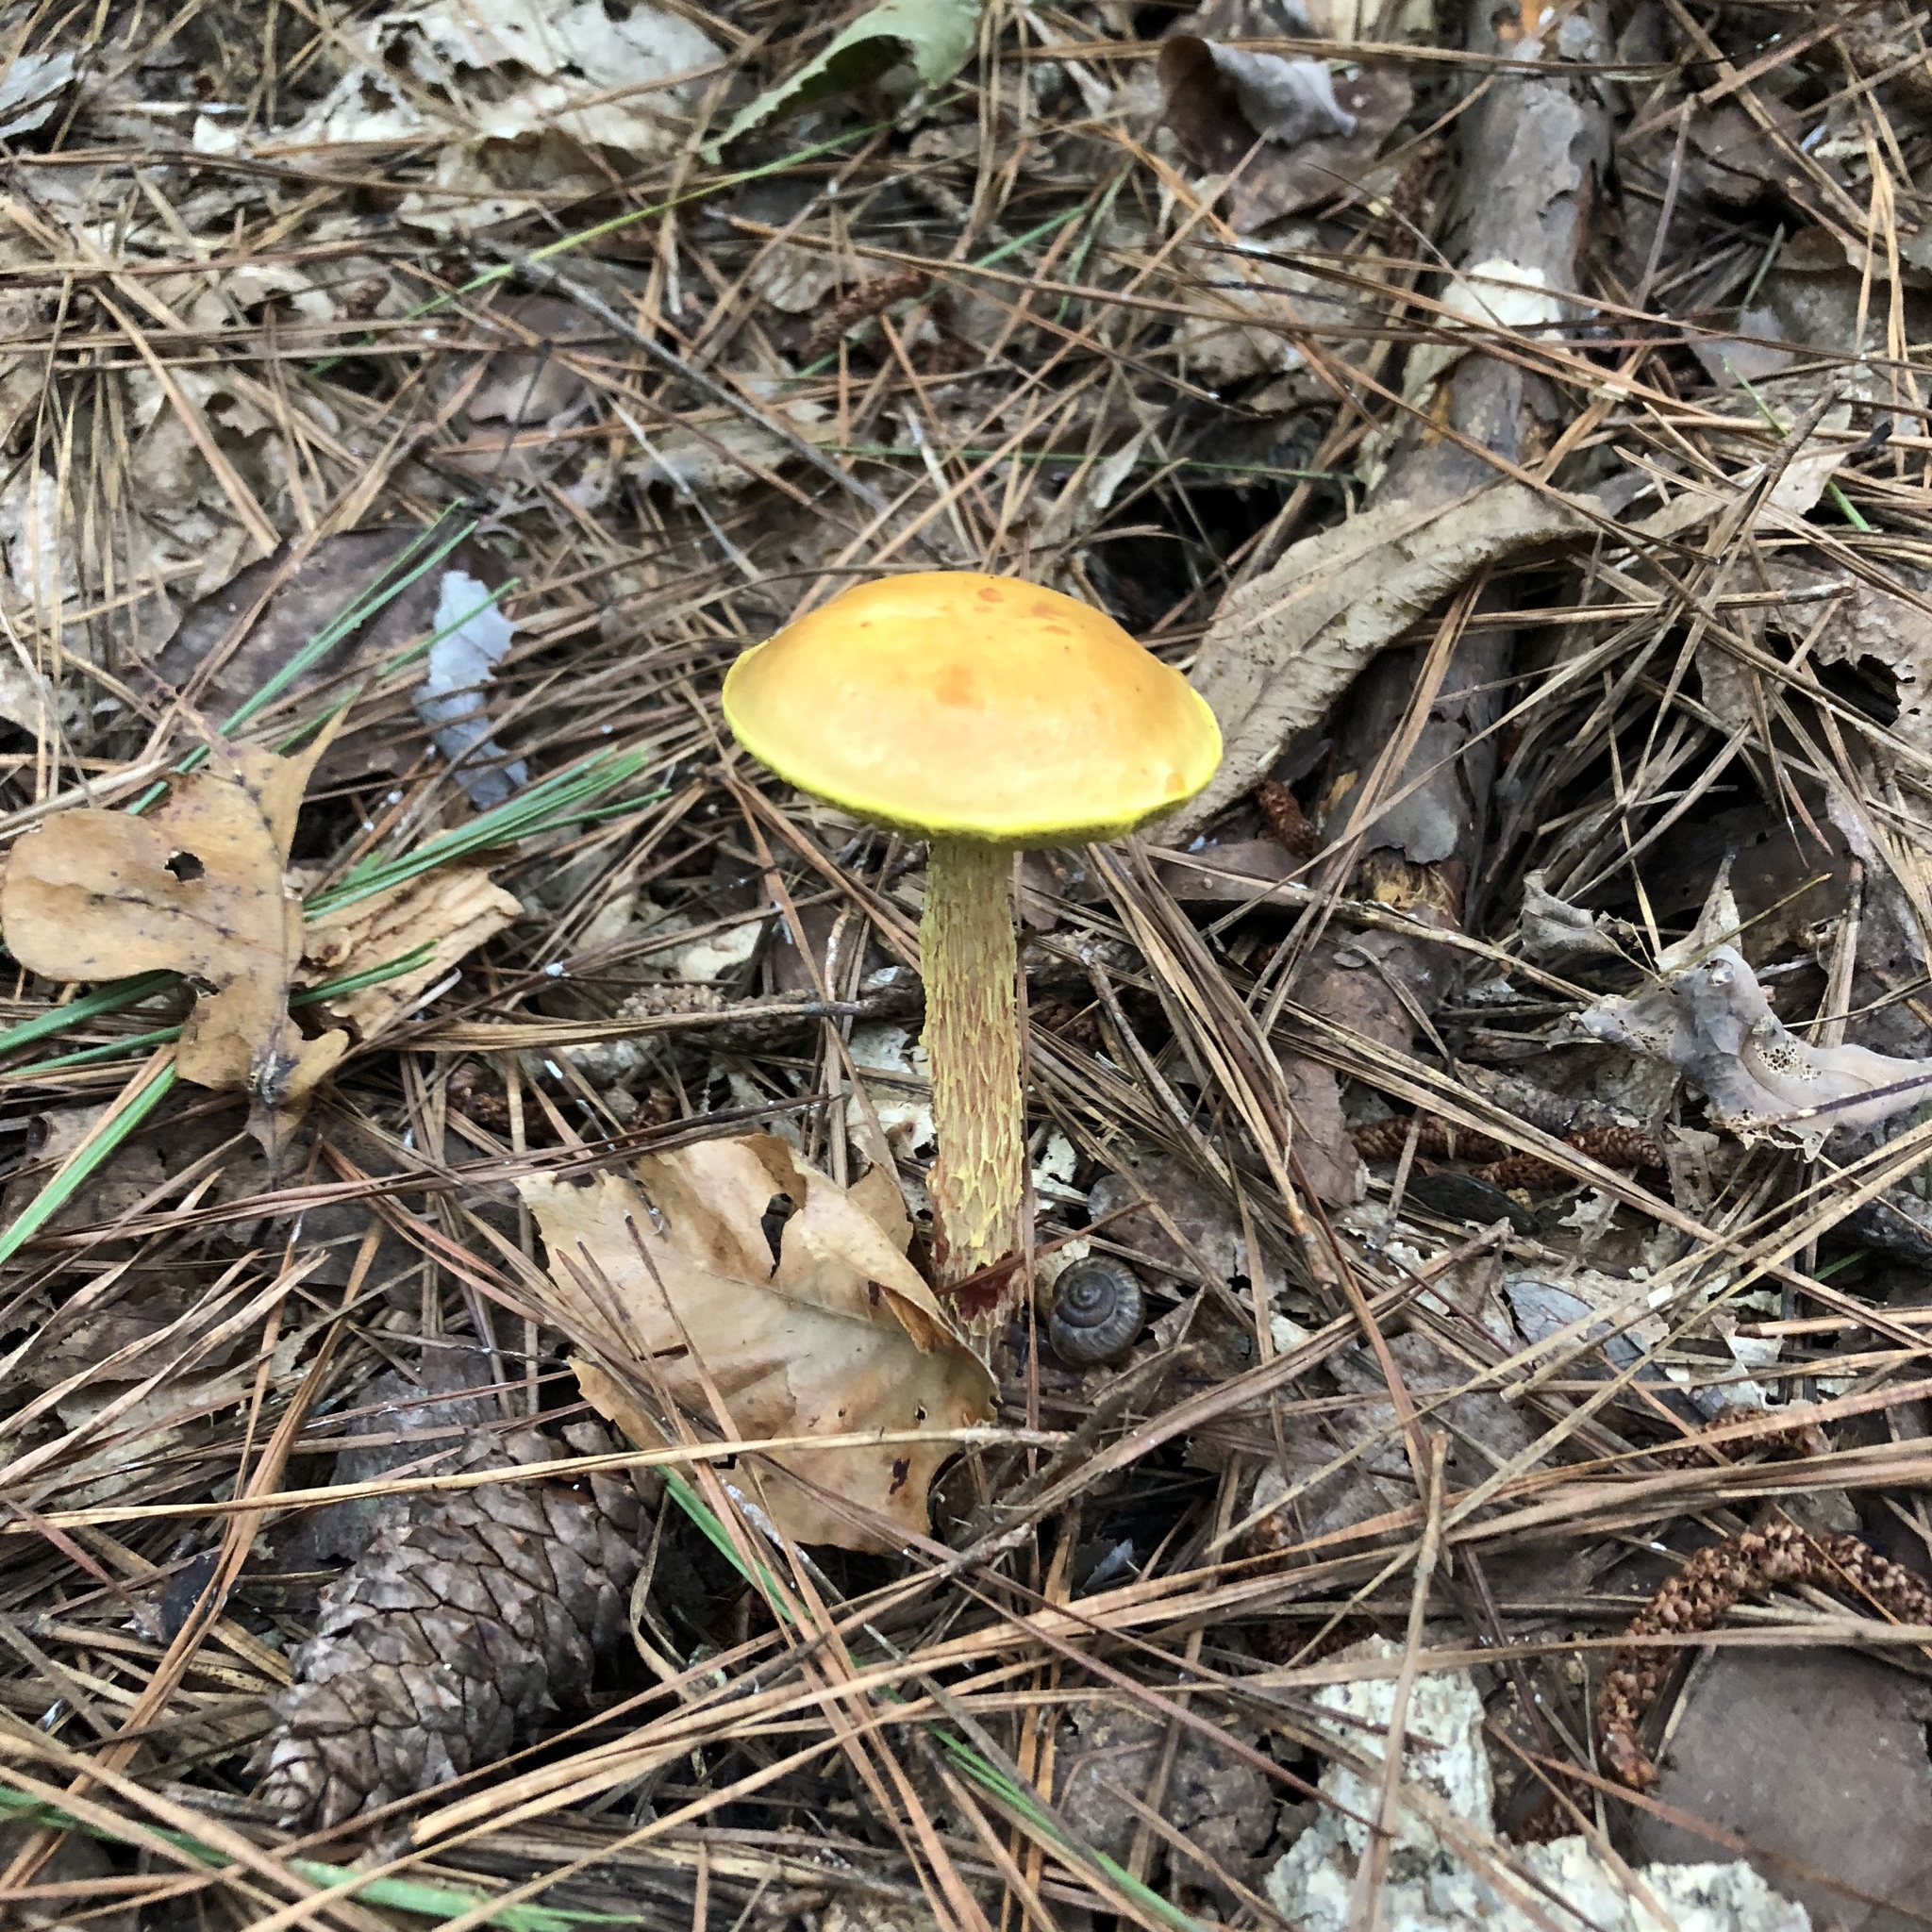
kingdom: Fungi
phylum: Basidiomycota
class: Agaricomycetes
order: Boletales
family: Boletaceae
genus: Aureoboletus
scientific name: Aureoboletus betula
